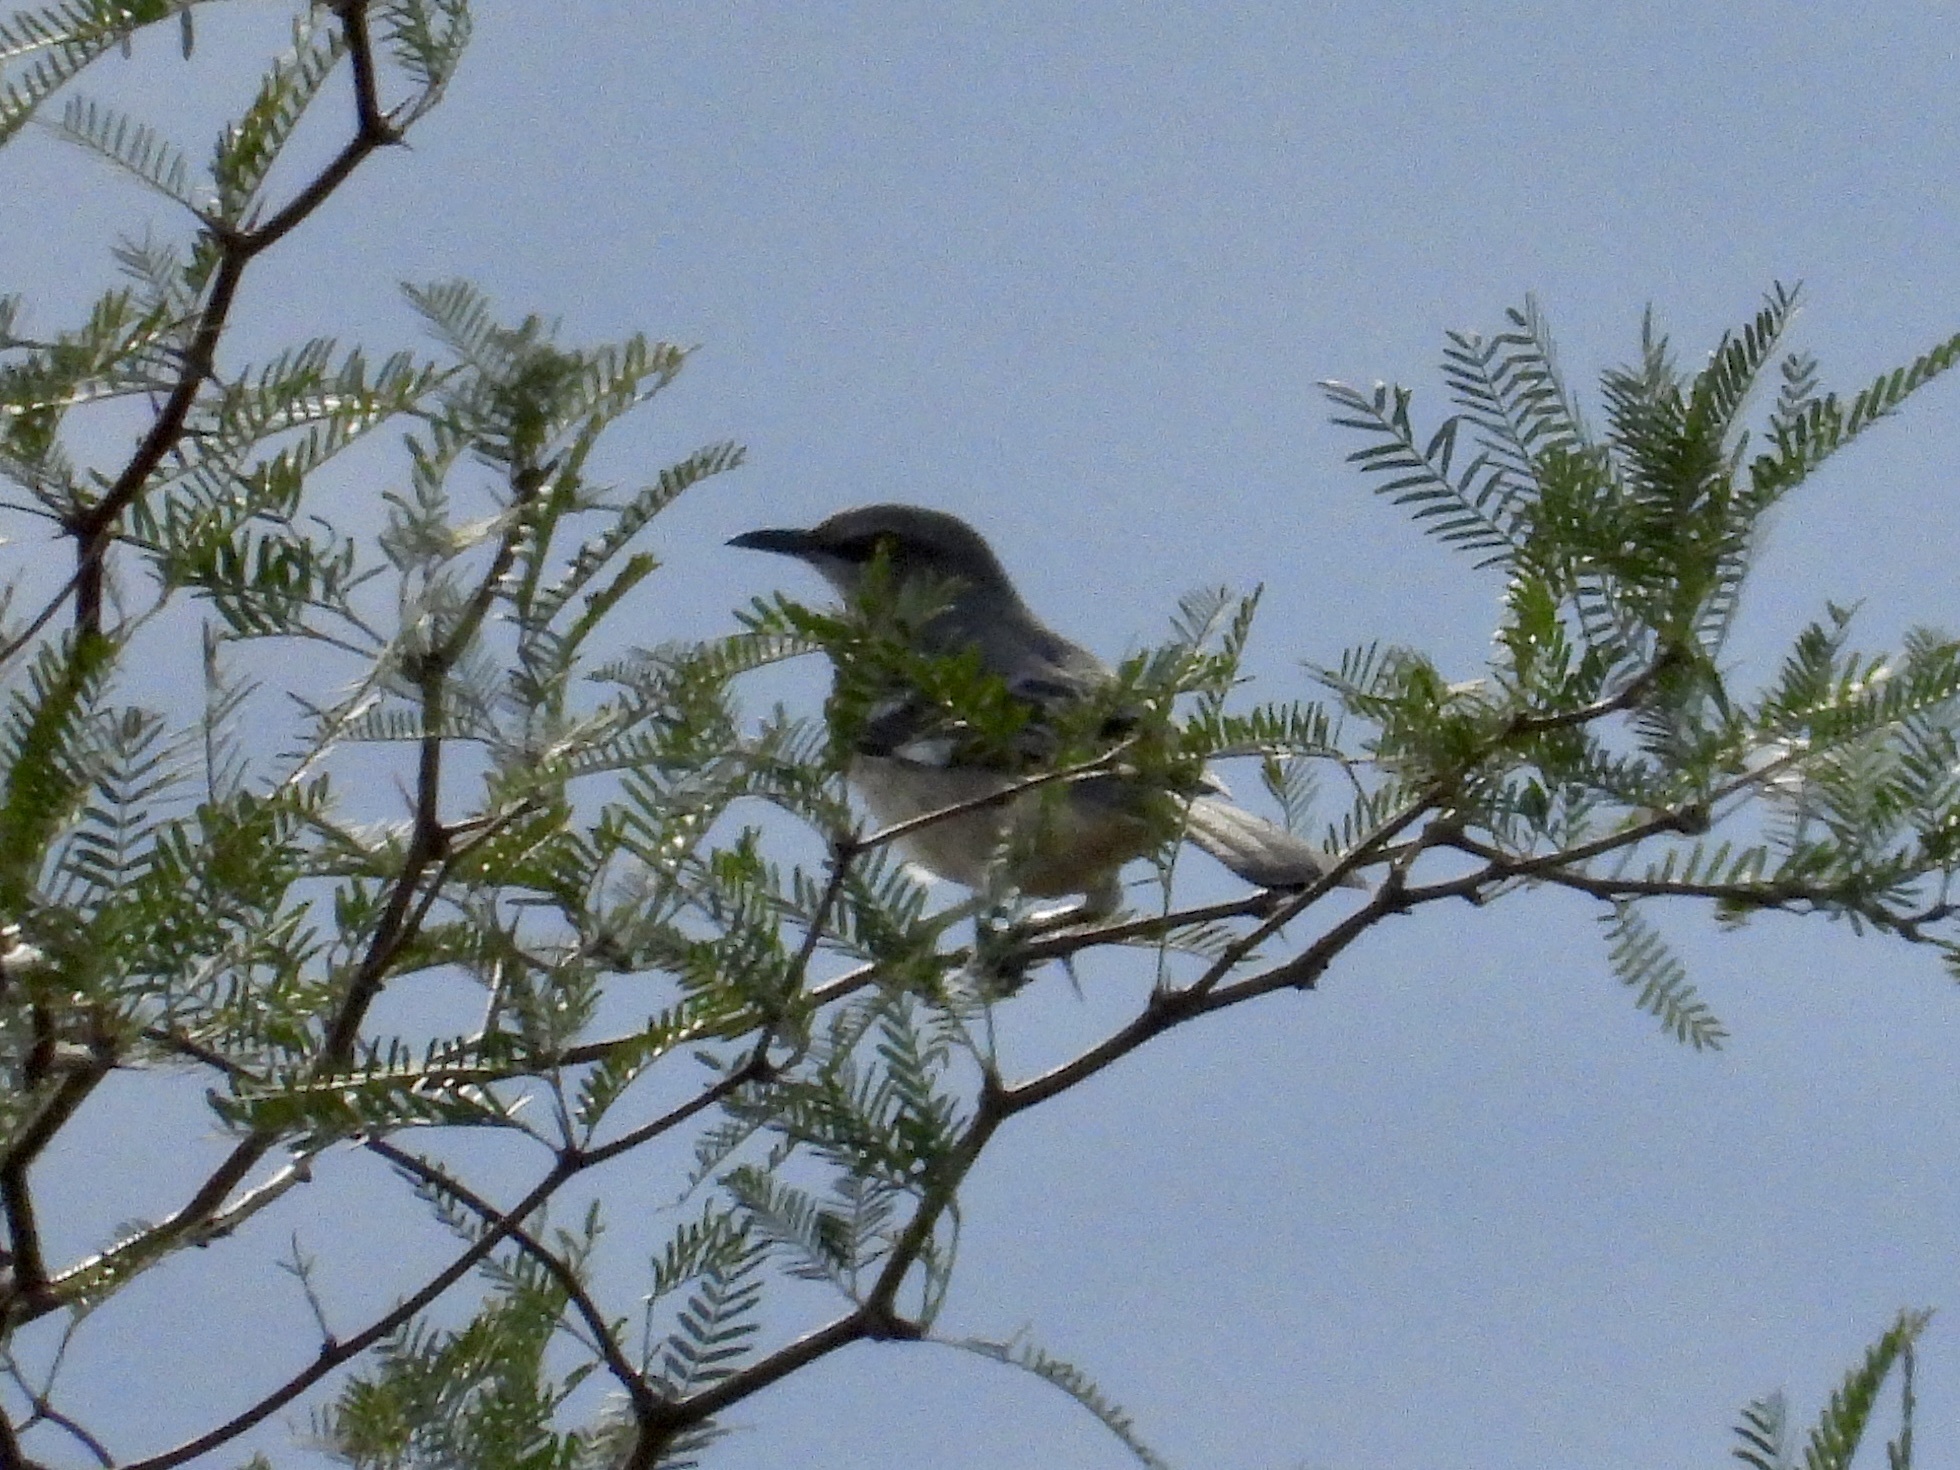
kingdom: Animalia
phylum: Chordata
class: Aves
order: Passeriformes
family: Mimidae
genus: Mimus
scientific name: Mimus polyglottos
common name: Northern mockingbird
